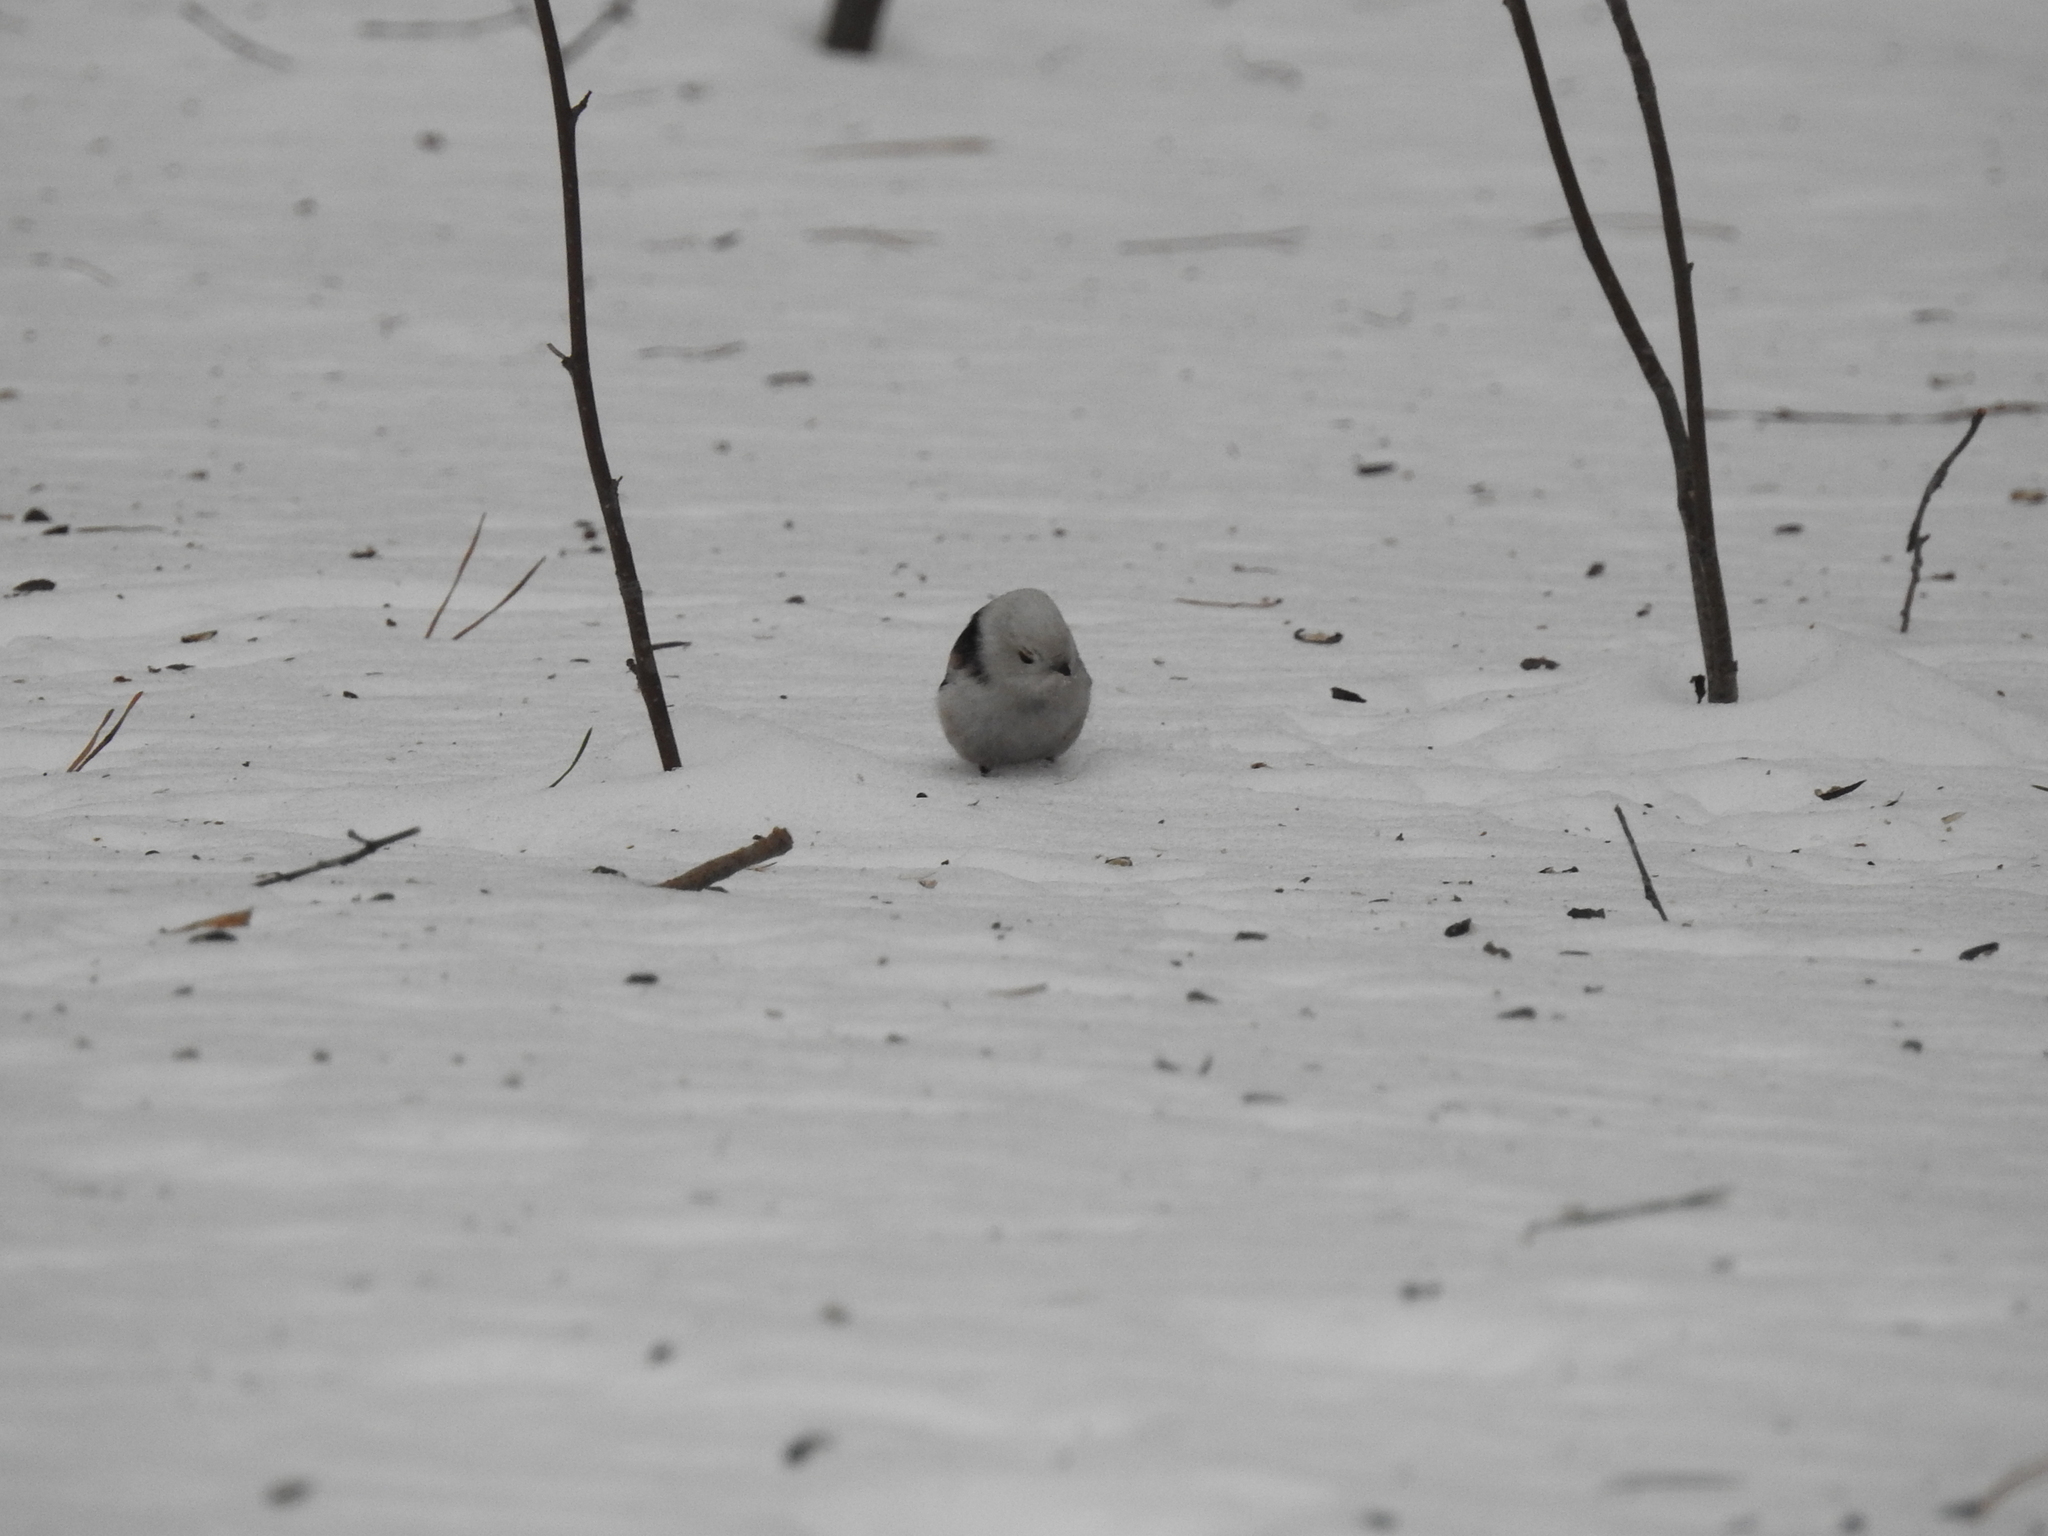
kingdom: Animalia
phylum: Chordata
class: Aves
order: Passeriformes
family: Aegithalidae
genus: Aegithalos
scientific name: Aegithalos caudatus
